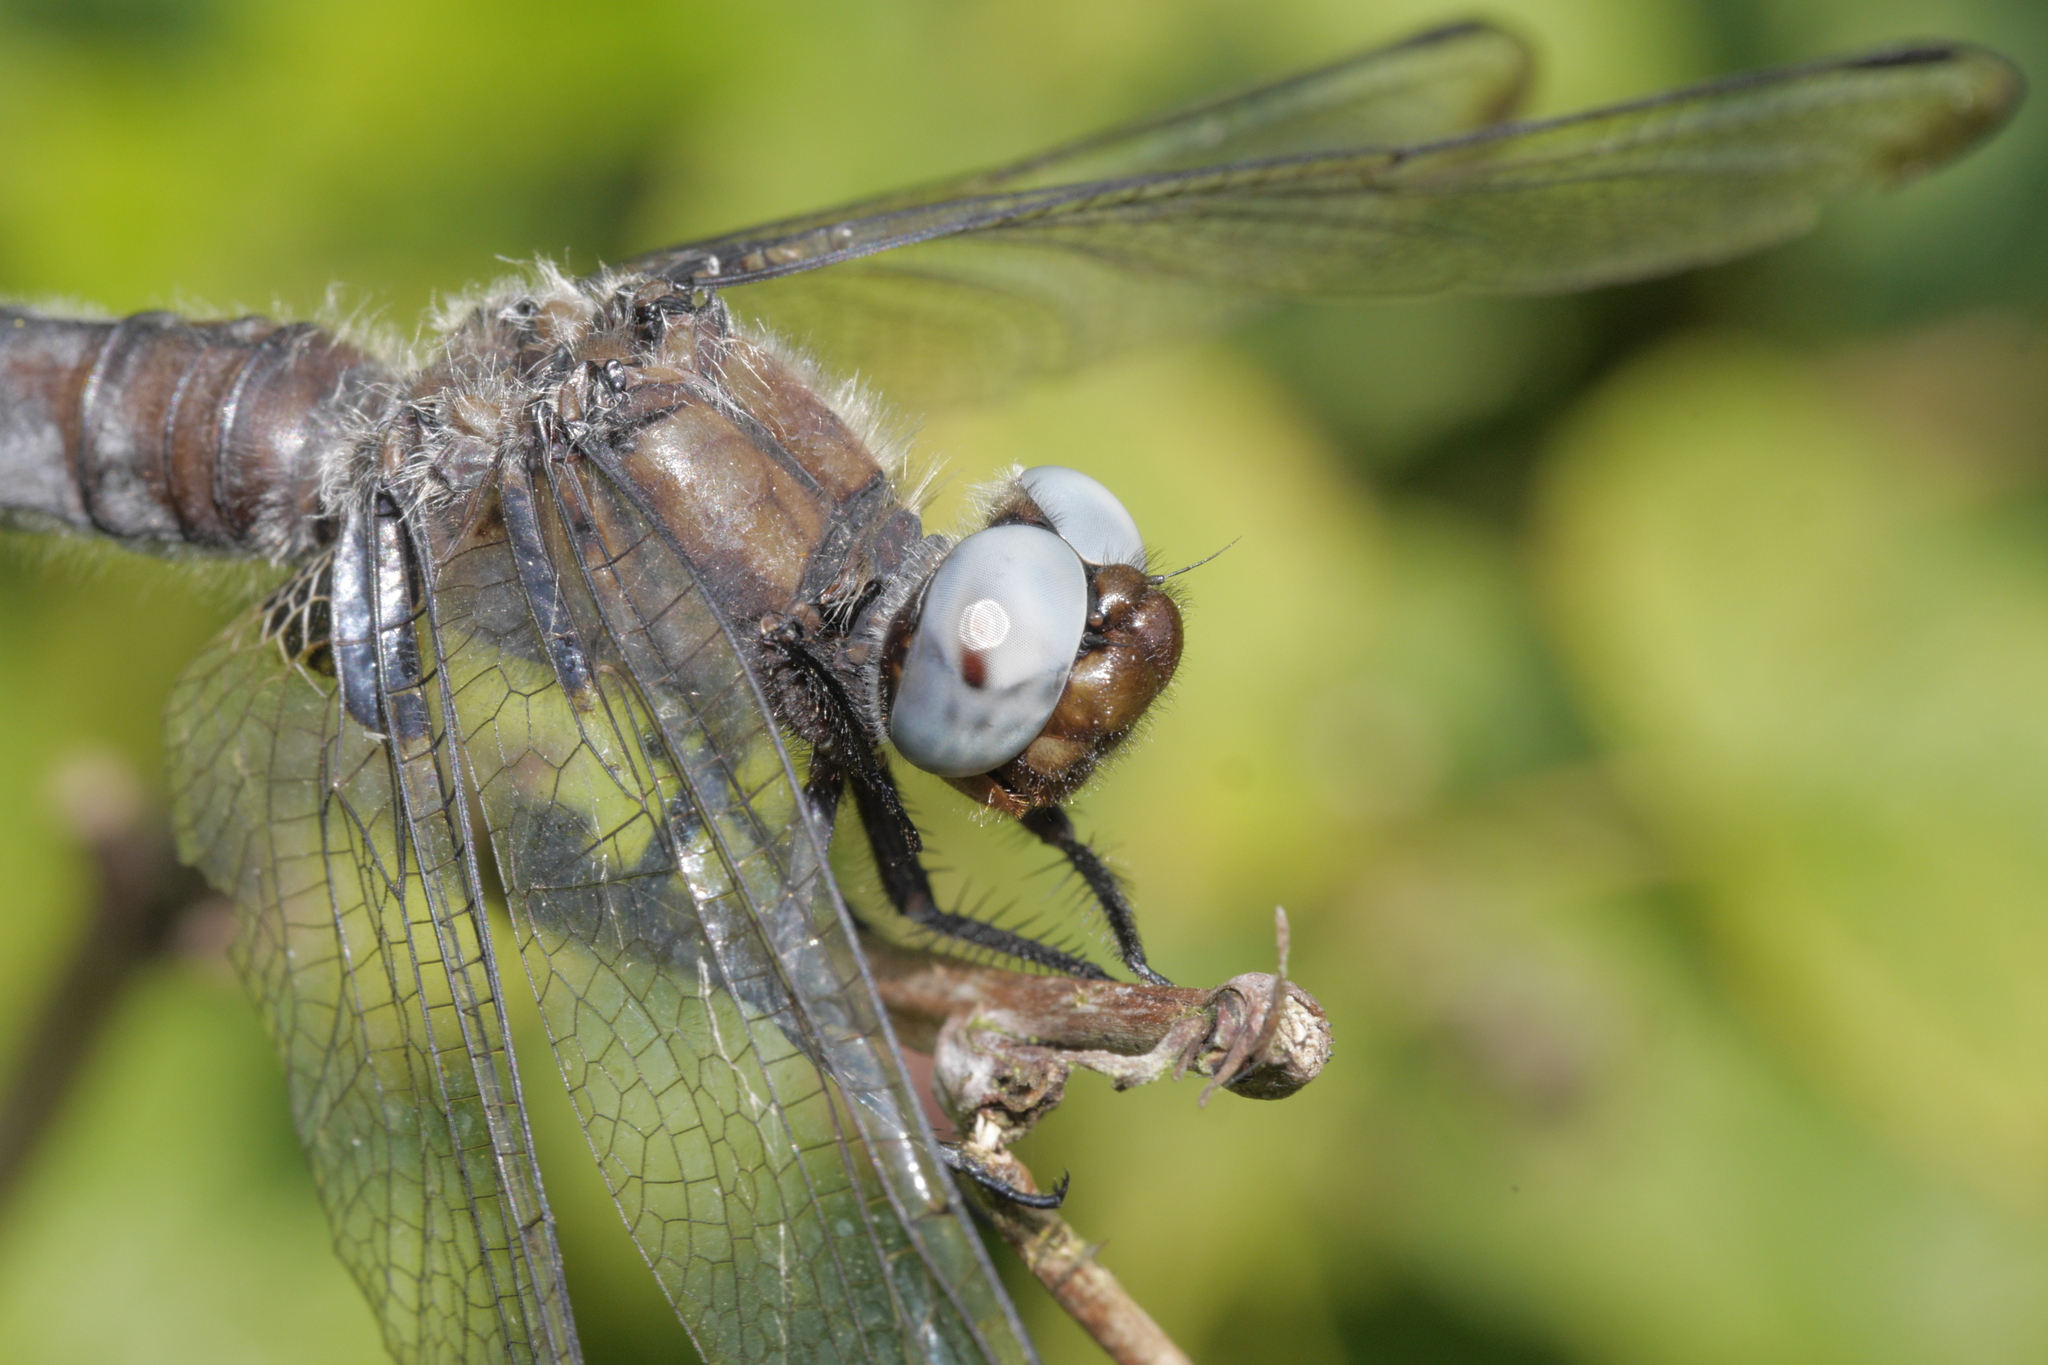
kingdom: Animalia
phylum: Arthropoda
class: Insecta
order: Odonata
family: Libellulidae
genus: Libellula
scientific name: Libellula fulva
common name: Blue chaser
